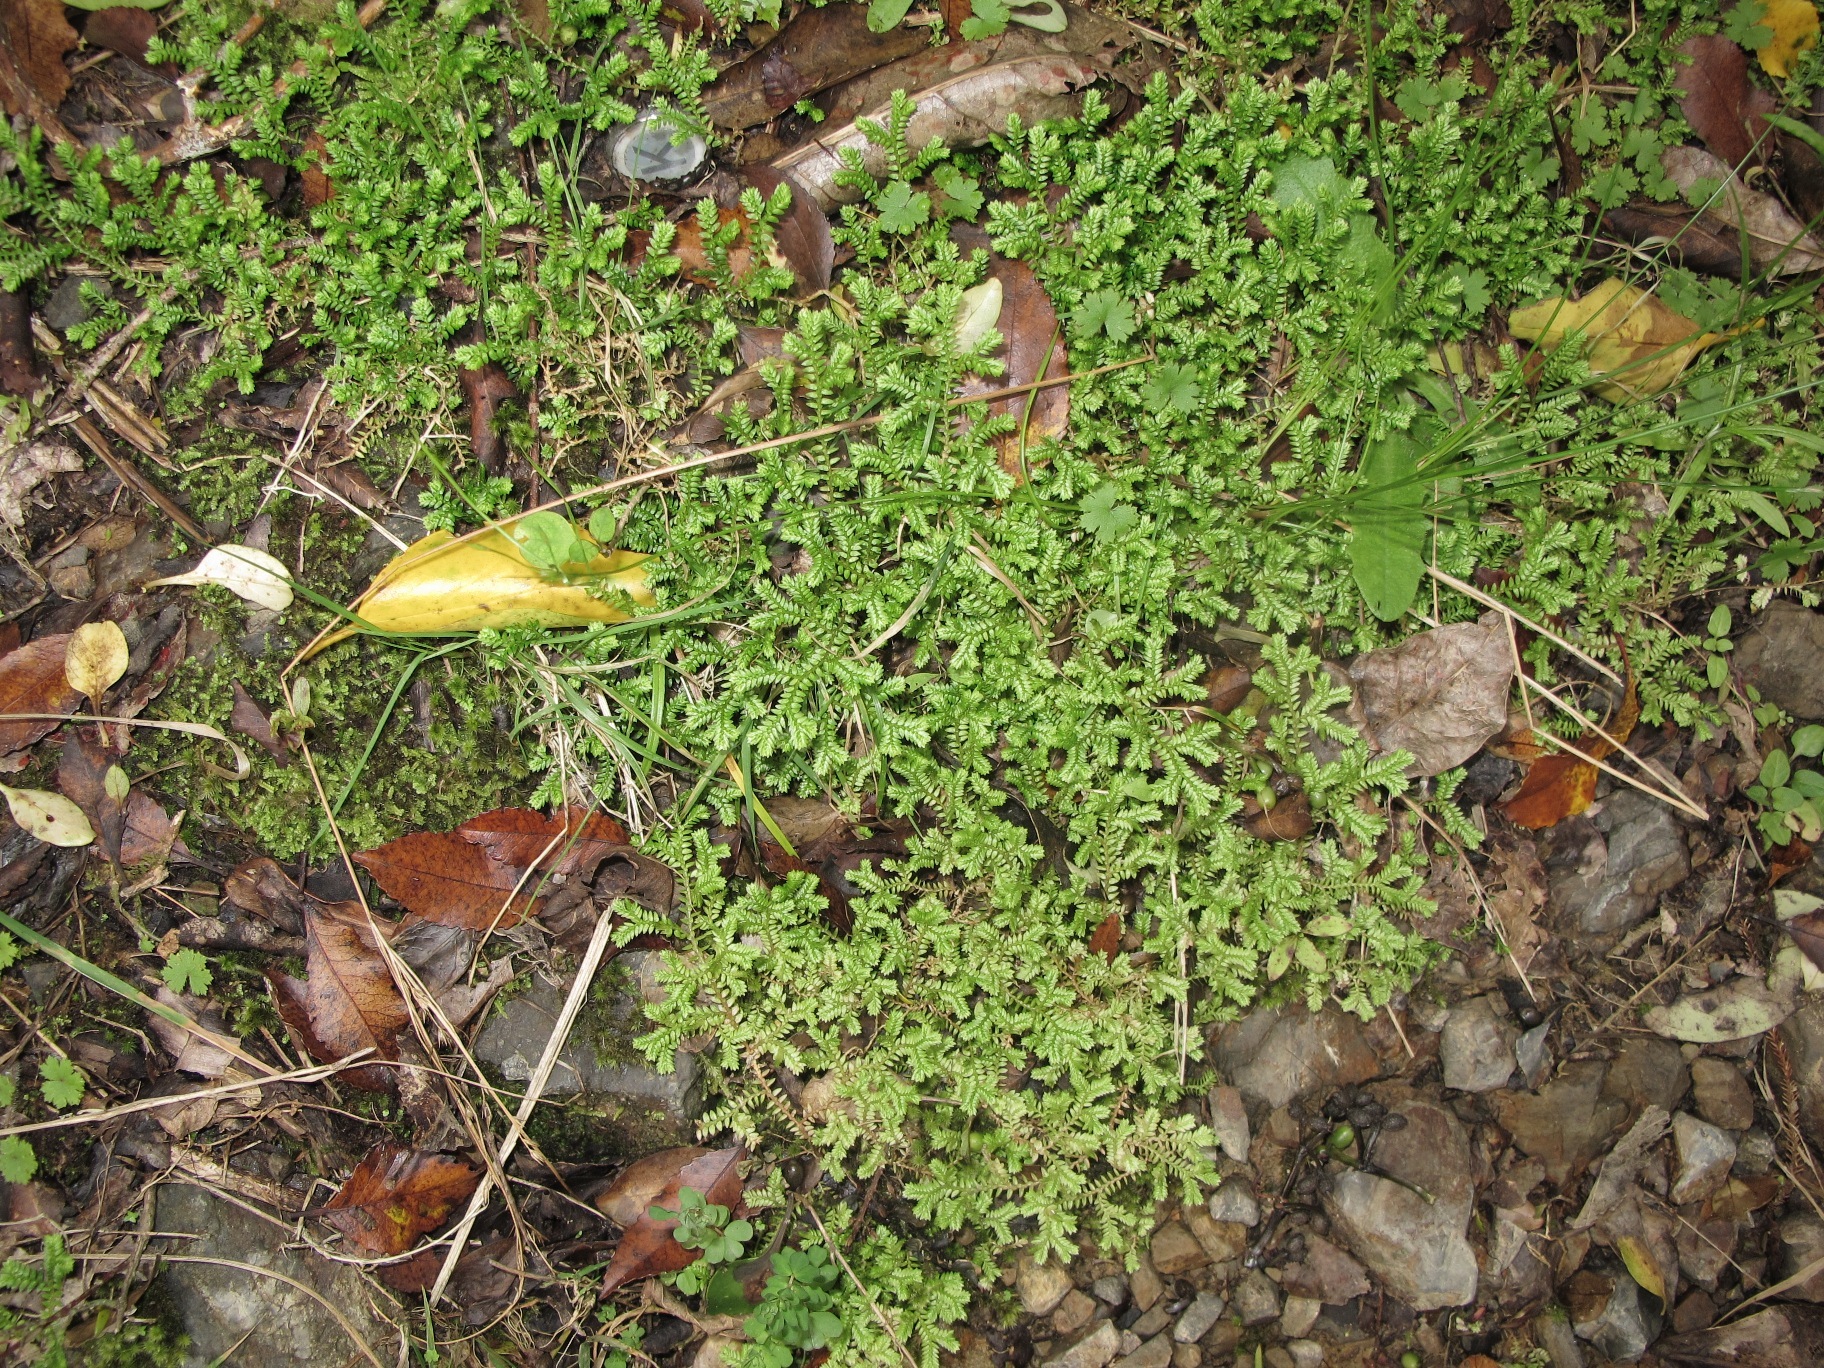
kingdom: Plantae
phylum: Tracheophyta
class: Lycopodiopsida
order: Selaginellales
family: Selaginellaceae
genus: Selaginella
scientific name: Selaginella kraussiana
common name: Krauss' spikemoss
